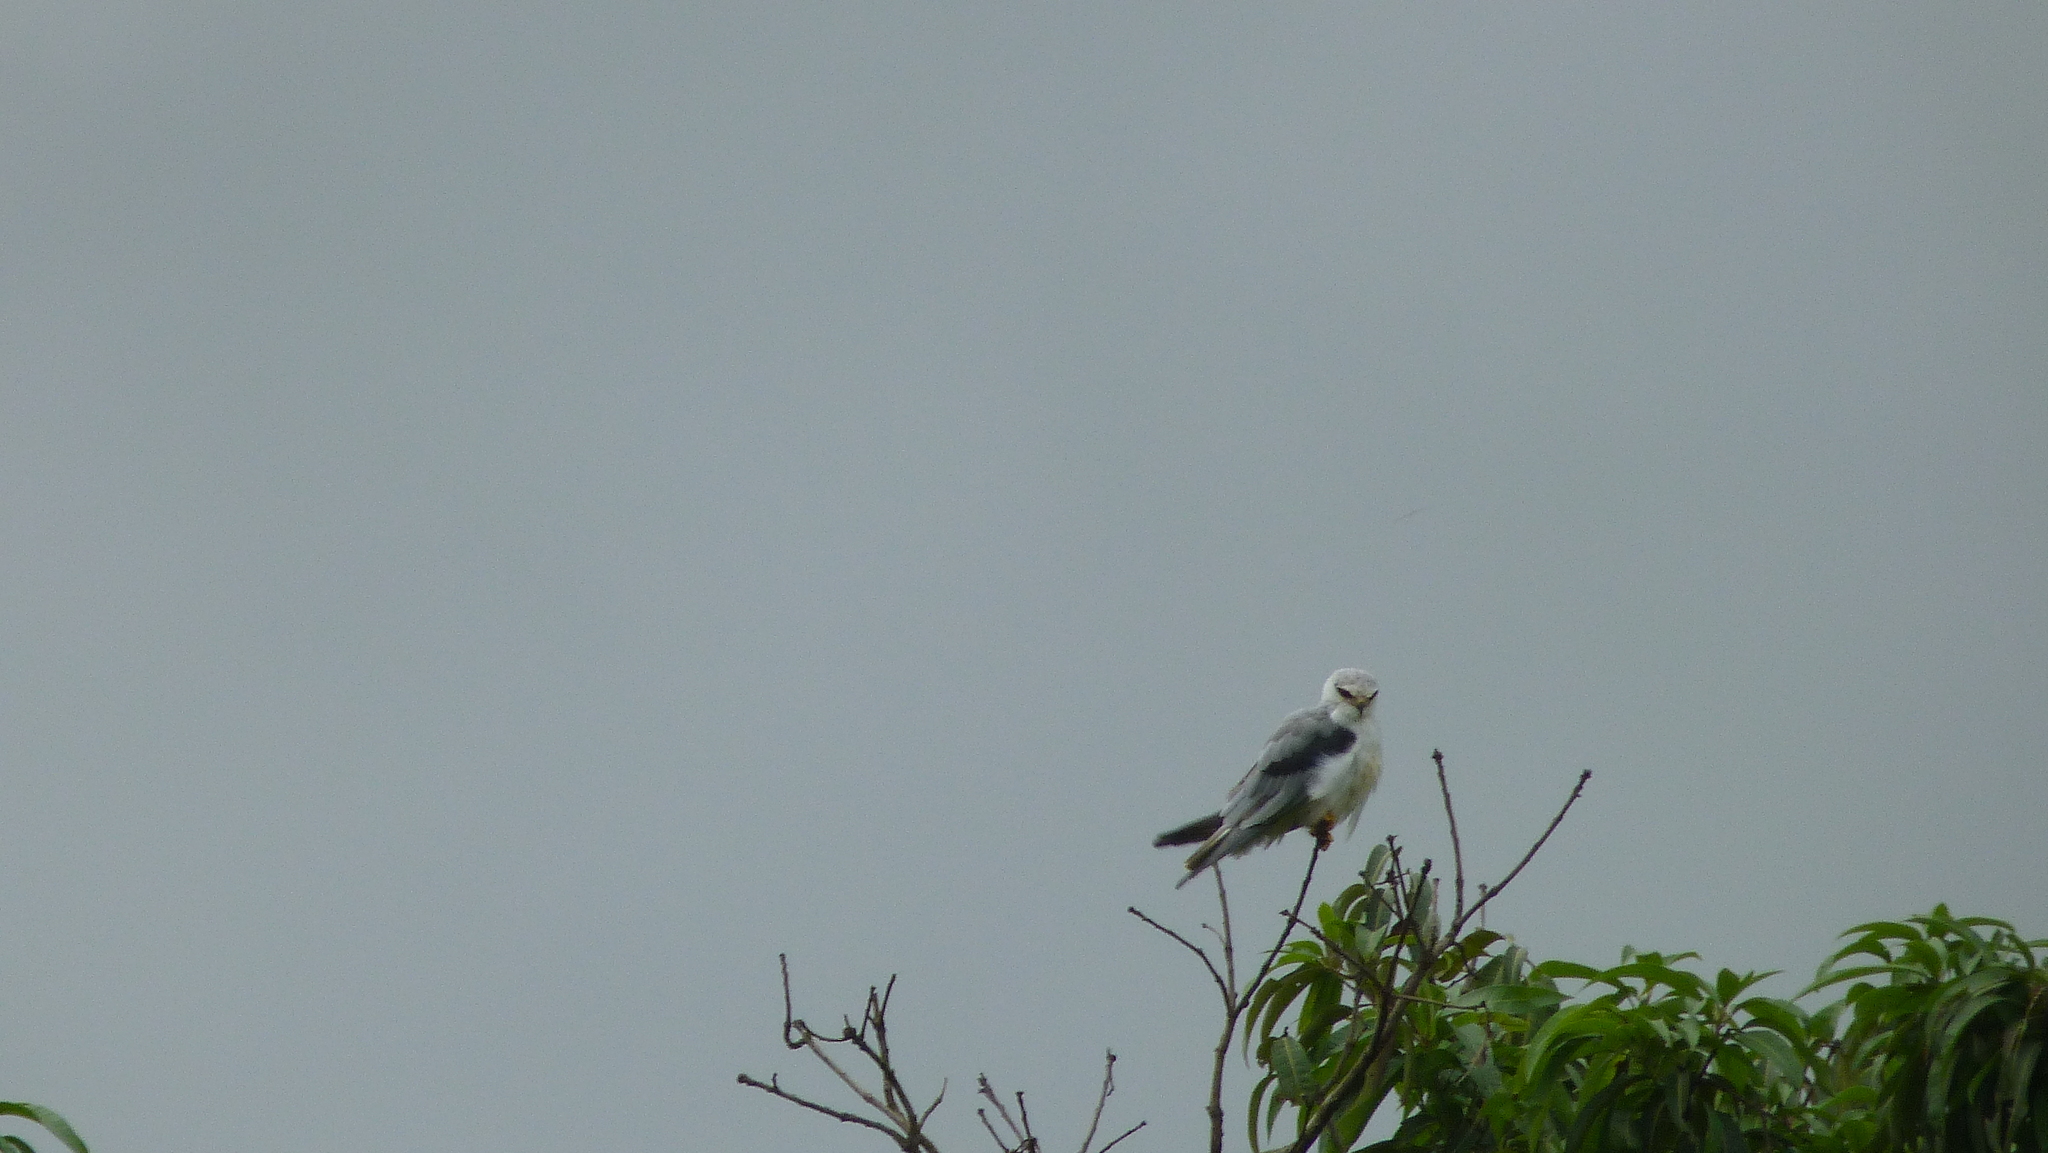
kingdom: Animalia
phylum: Chordata
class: Aves
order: Accipitriformes
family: Accipitridae
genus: Elanus
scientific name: Elanus caeruleus
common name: Black-winged kite
